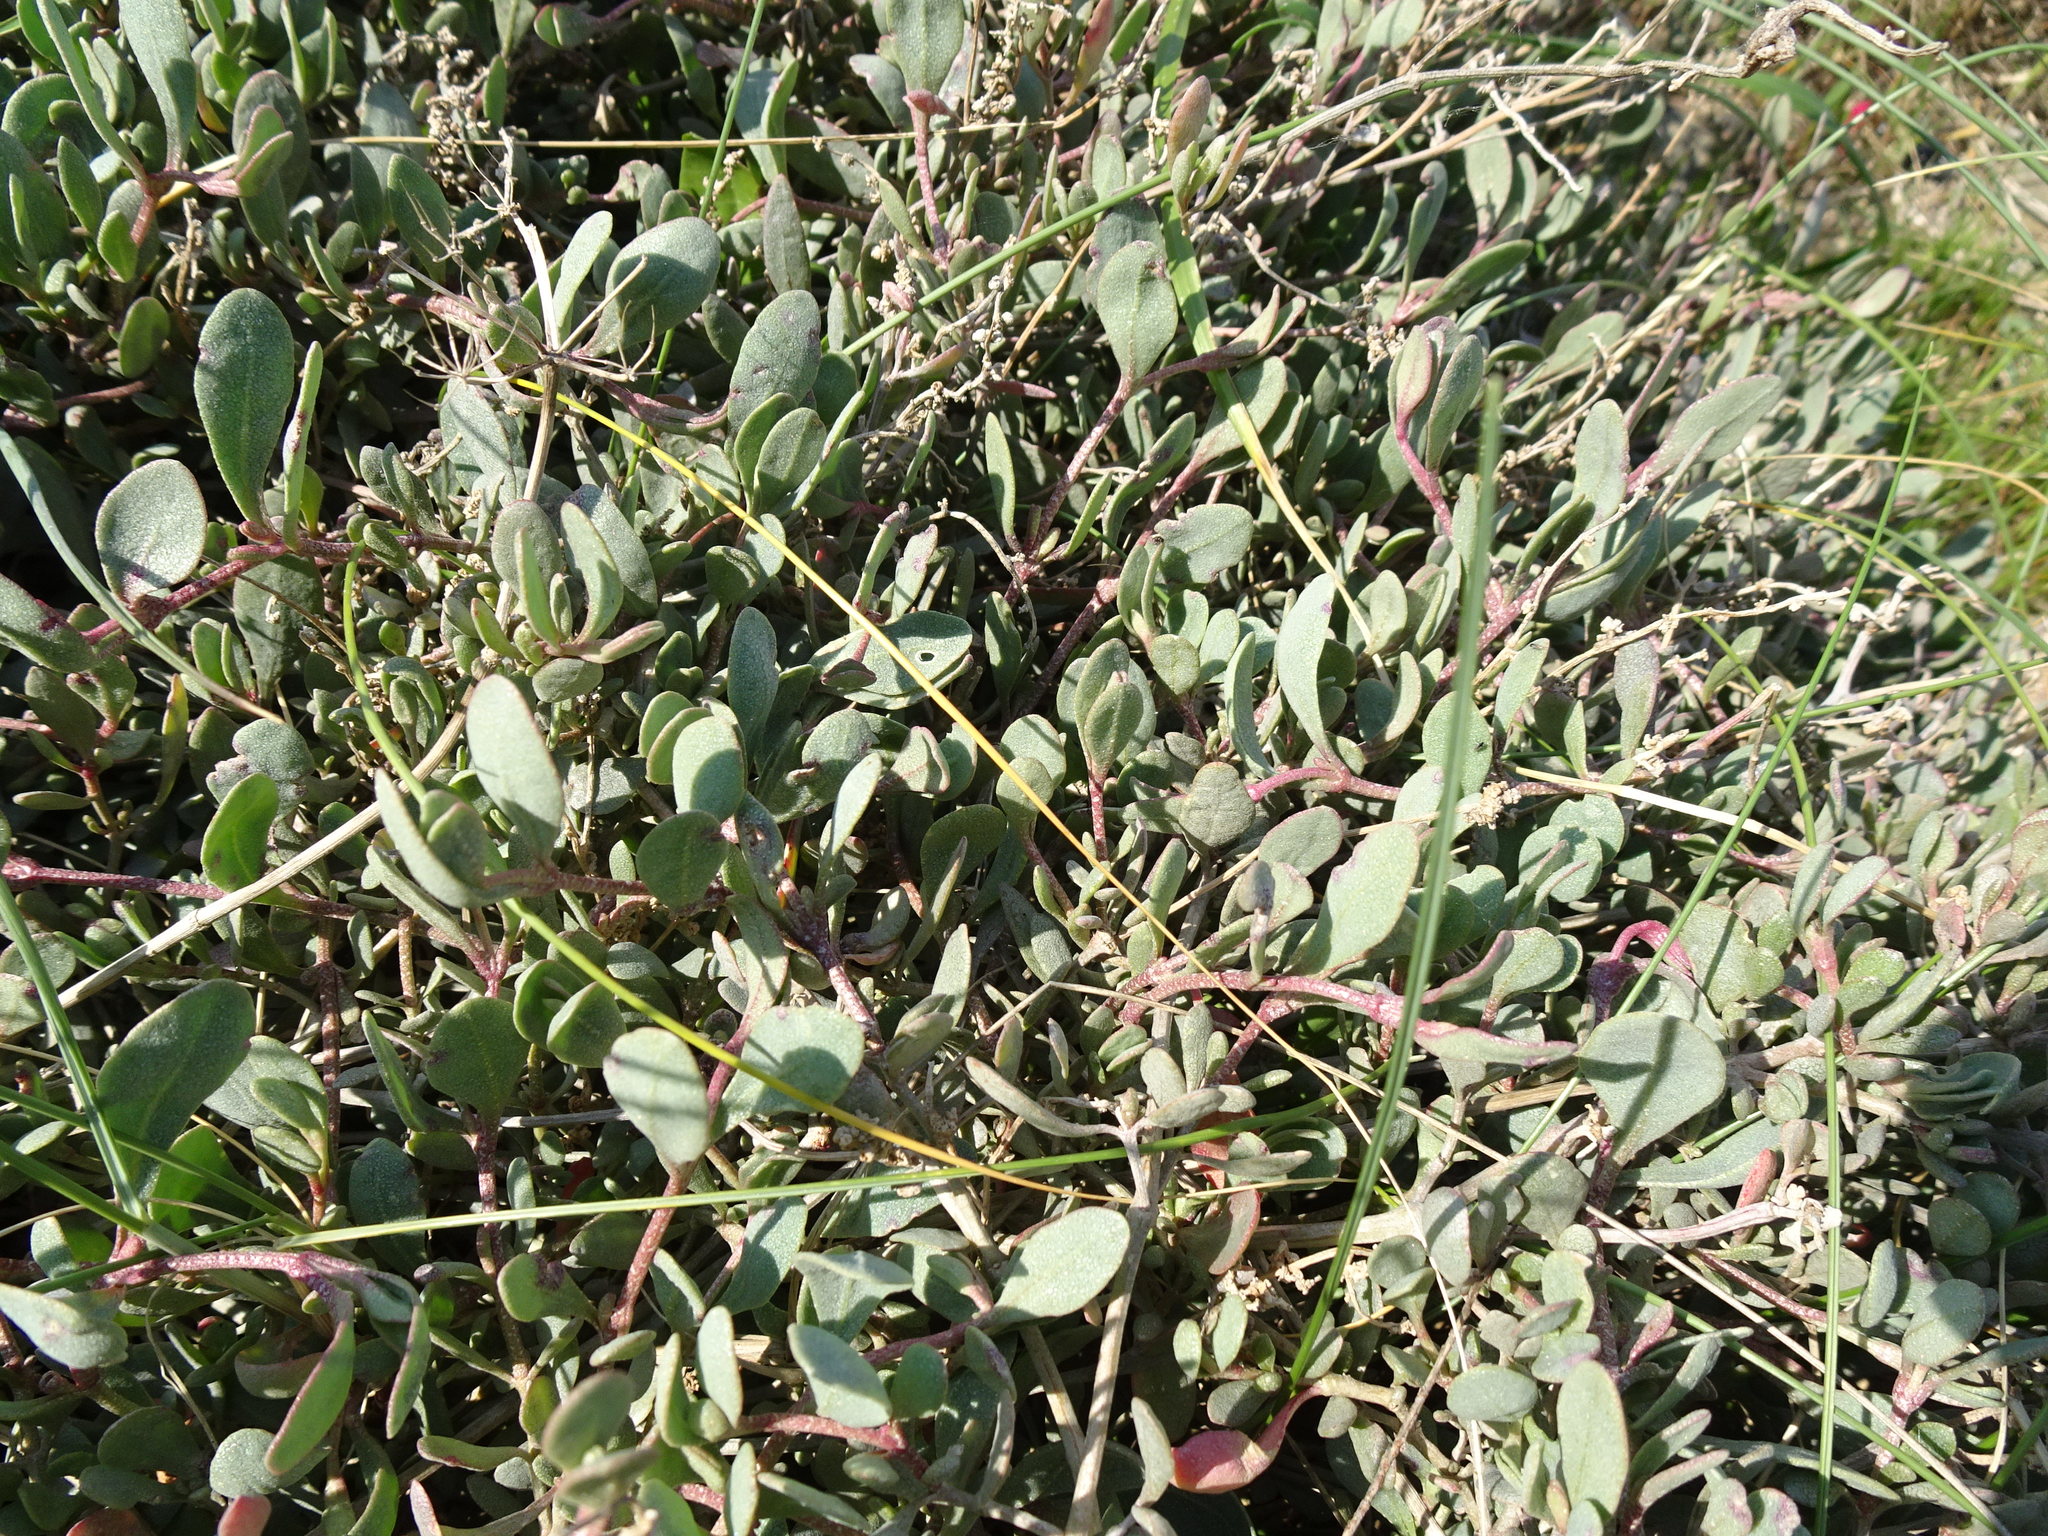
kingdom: Plantae
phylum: Tracheophyta
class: Magnoliopsida
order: Caryophyllales
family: Amaranthaceae
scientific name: Amaranthaceae
